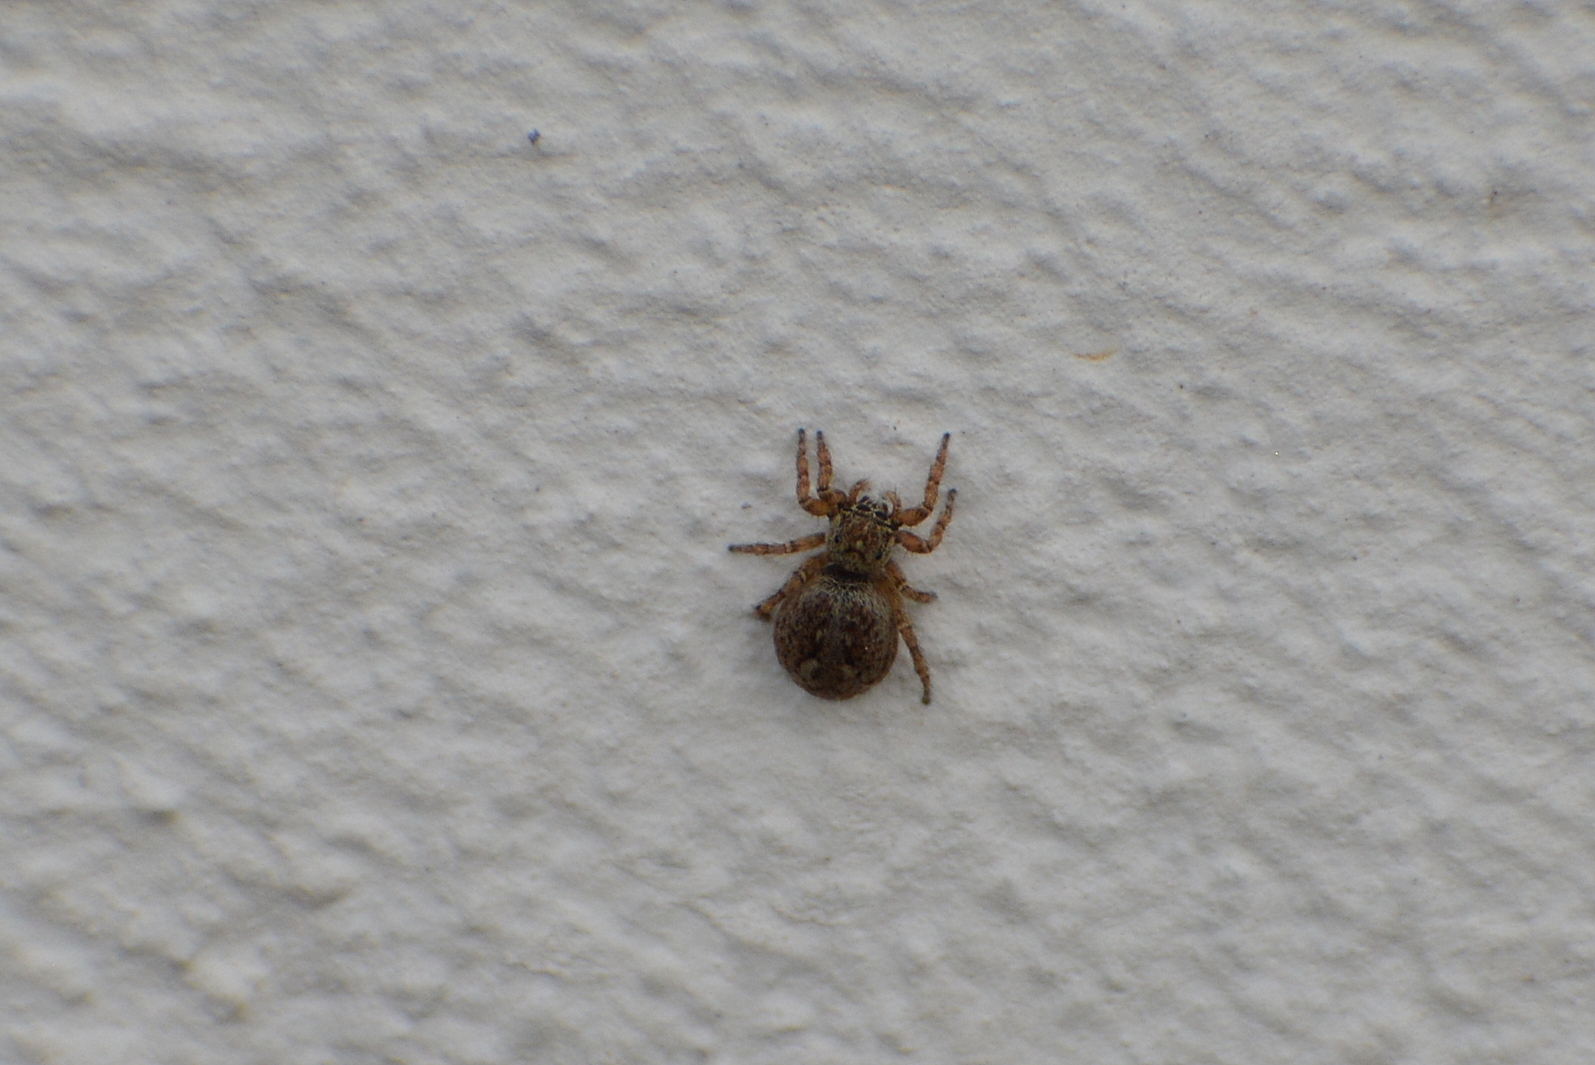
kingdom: Animalia
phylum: Arthropoda
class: Arachnida
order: Araneae
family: Salticidae
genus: Attulus
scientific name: Attulus pubescens
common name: Jumping spider
